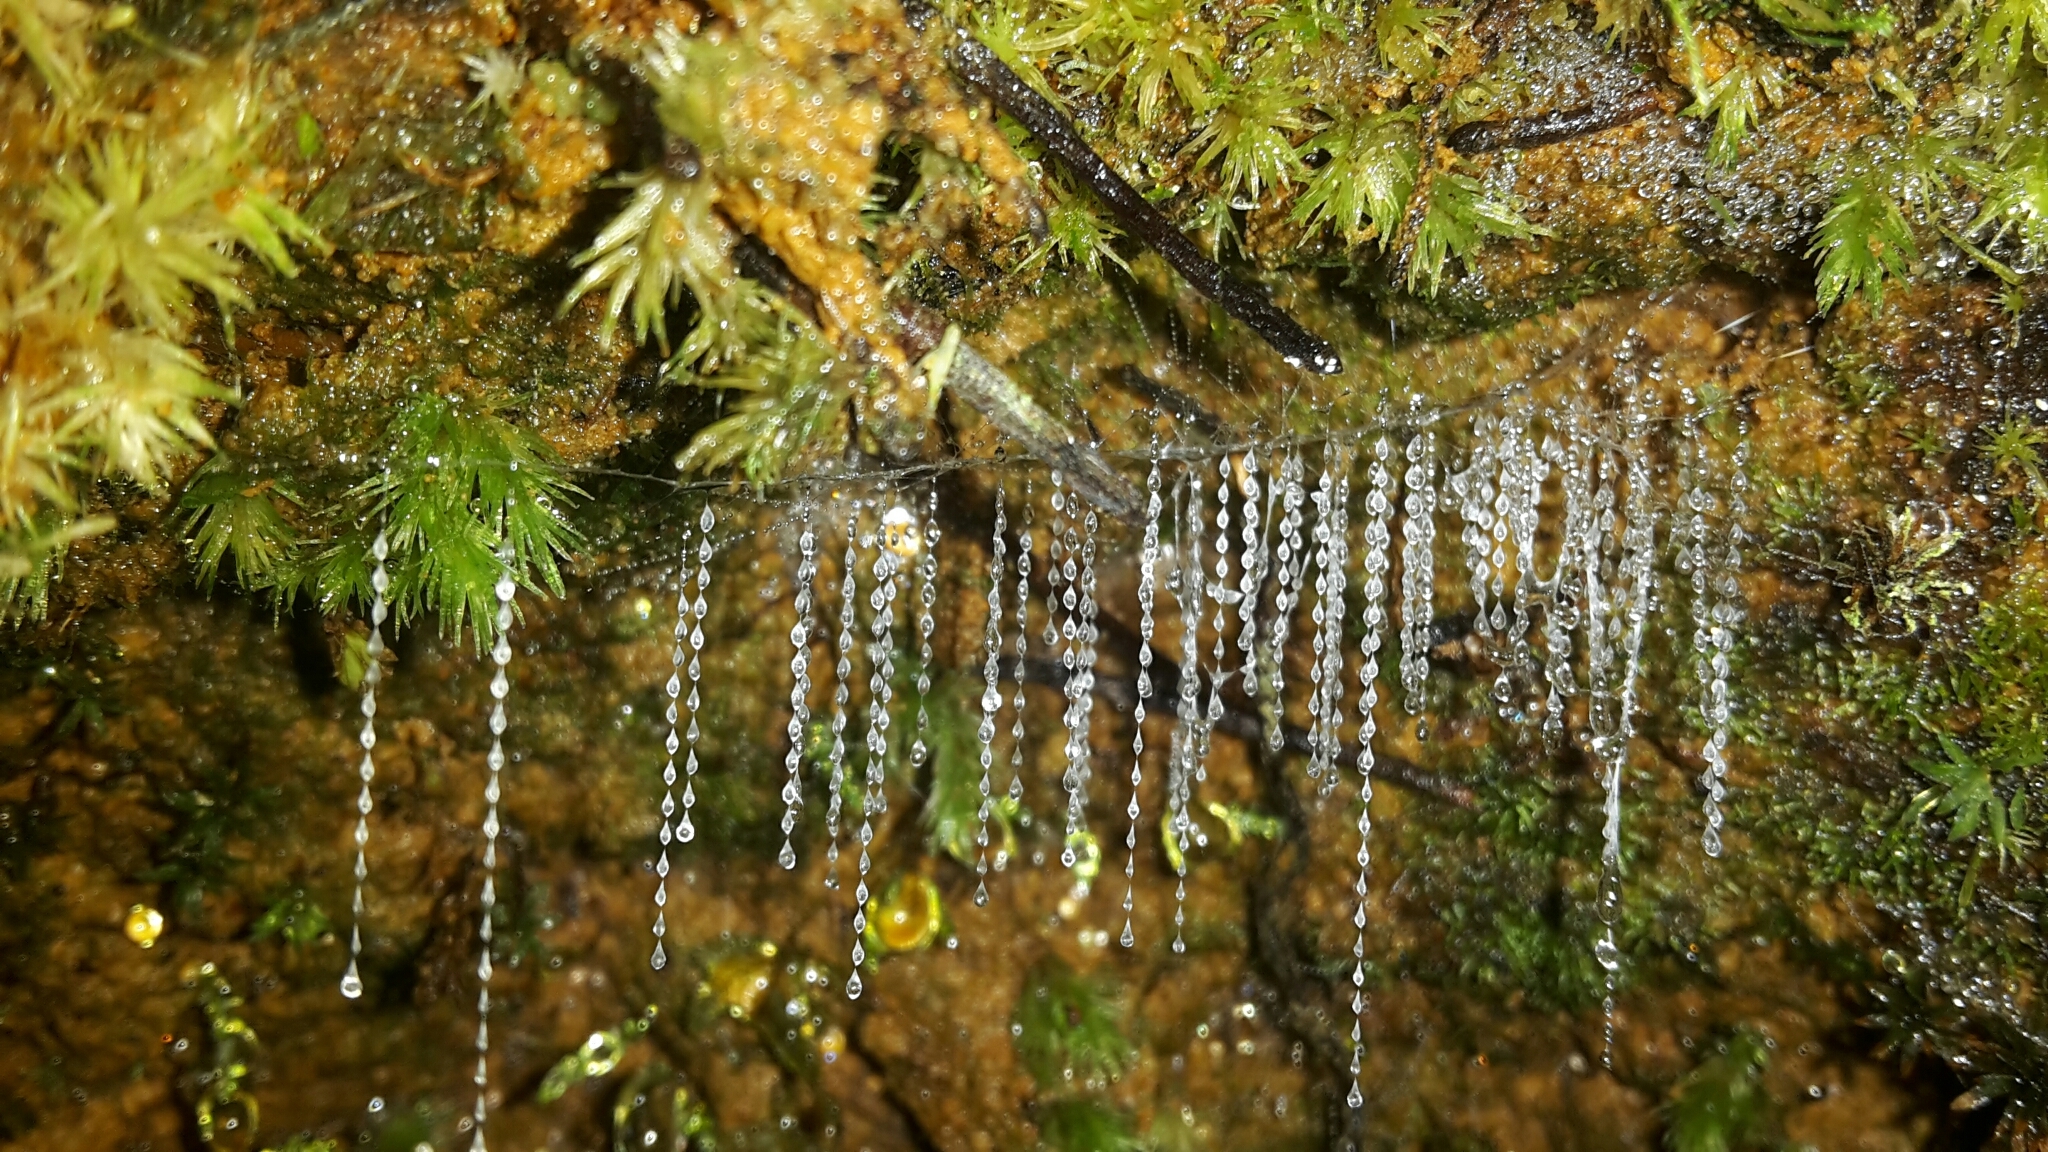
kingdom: Animalia
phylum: Arthropoda
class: Insecta
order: Diptera
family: Keroplatidae
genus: Arachnocampa
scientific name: Arachnocampa luminosa
